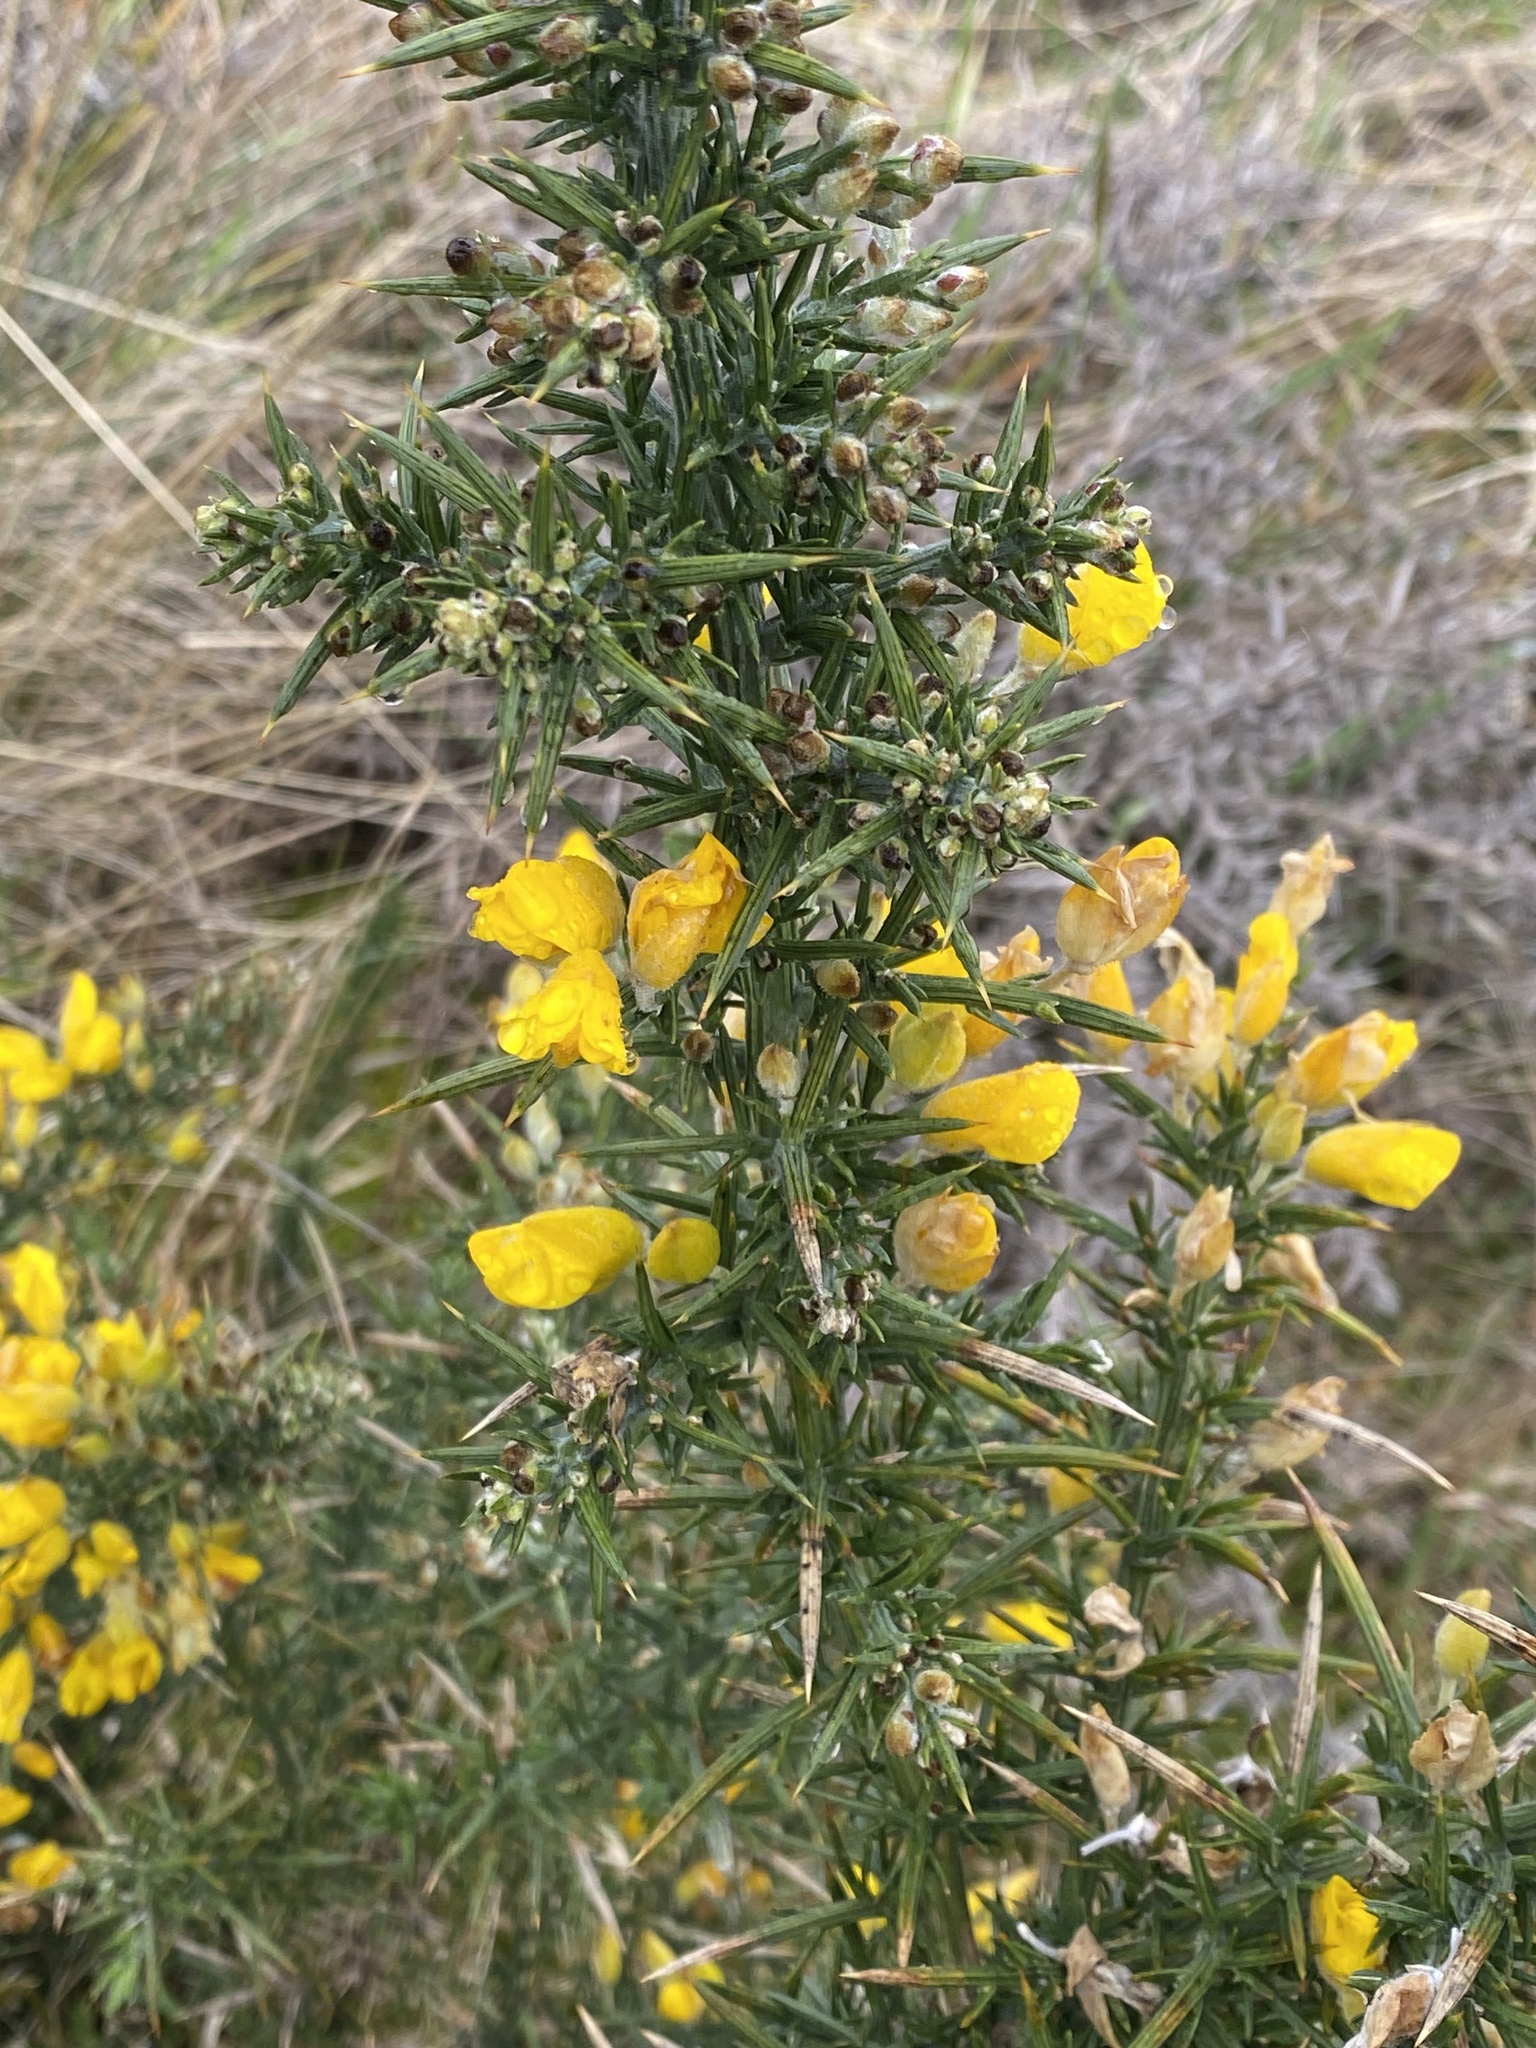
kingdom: Plantae
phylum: Tracheophyta
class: Magnoliopsida
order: Fabales
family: Fabaceae
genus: Ulex
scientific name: Ulex europaeus
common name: Common gorse
